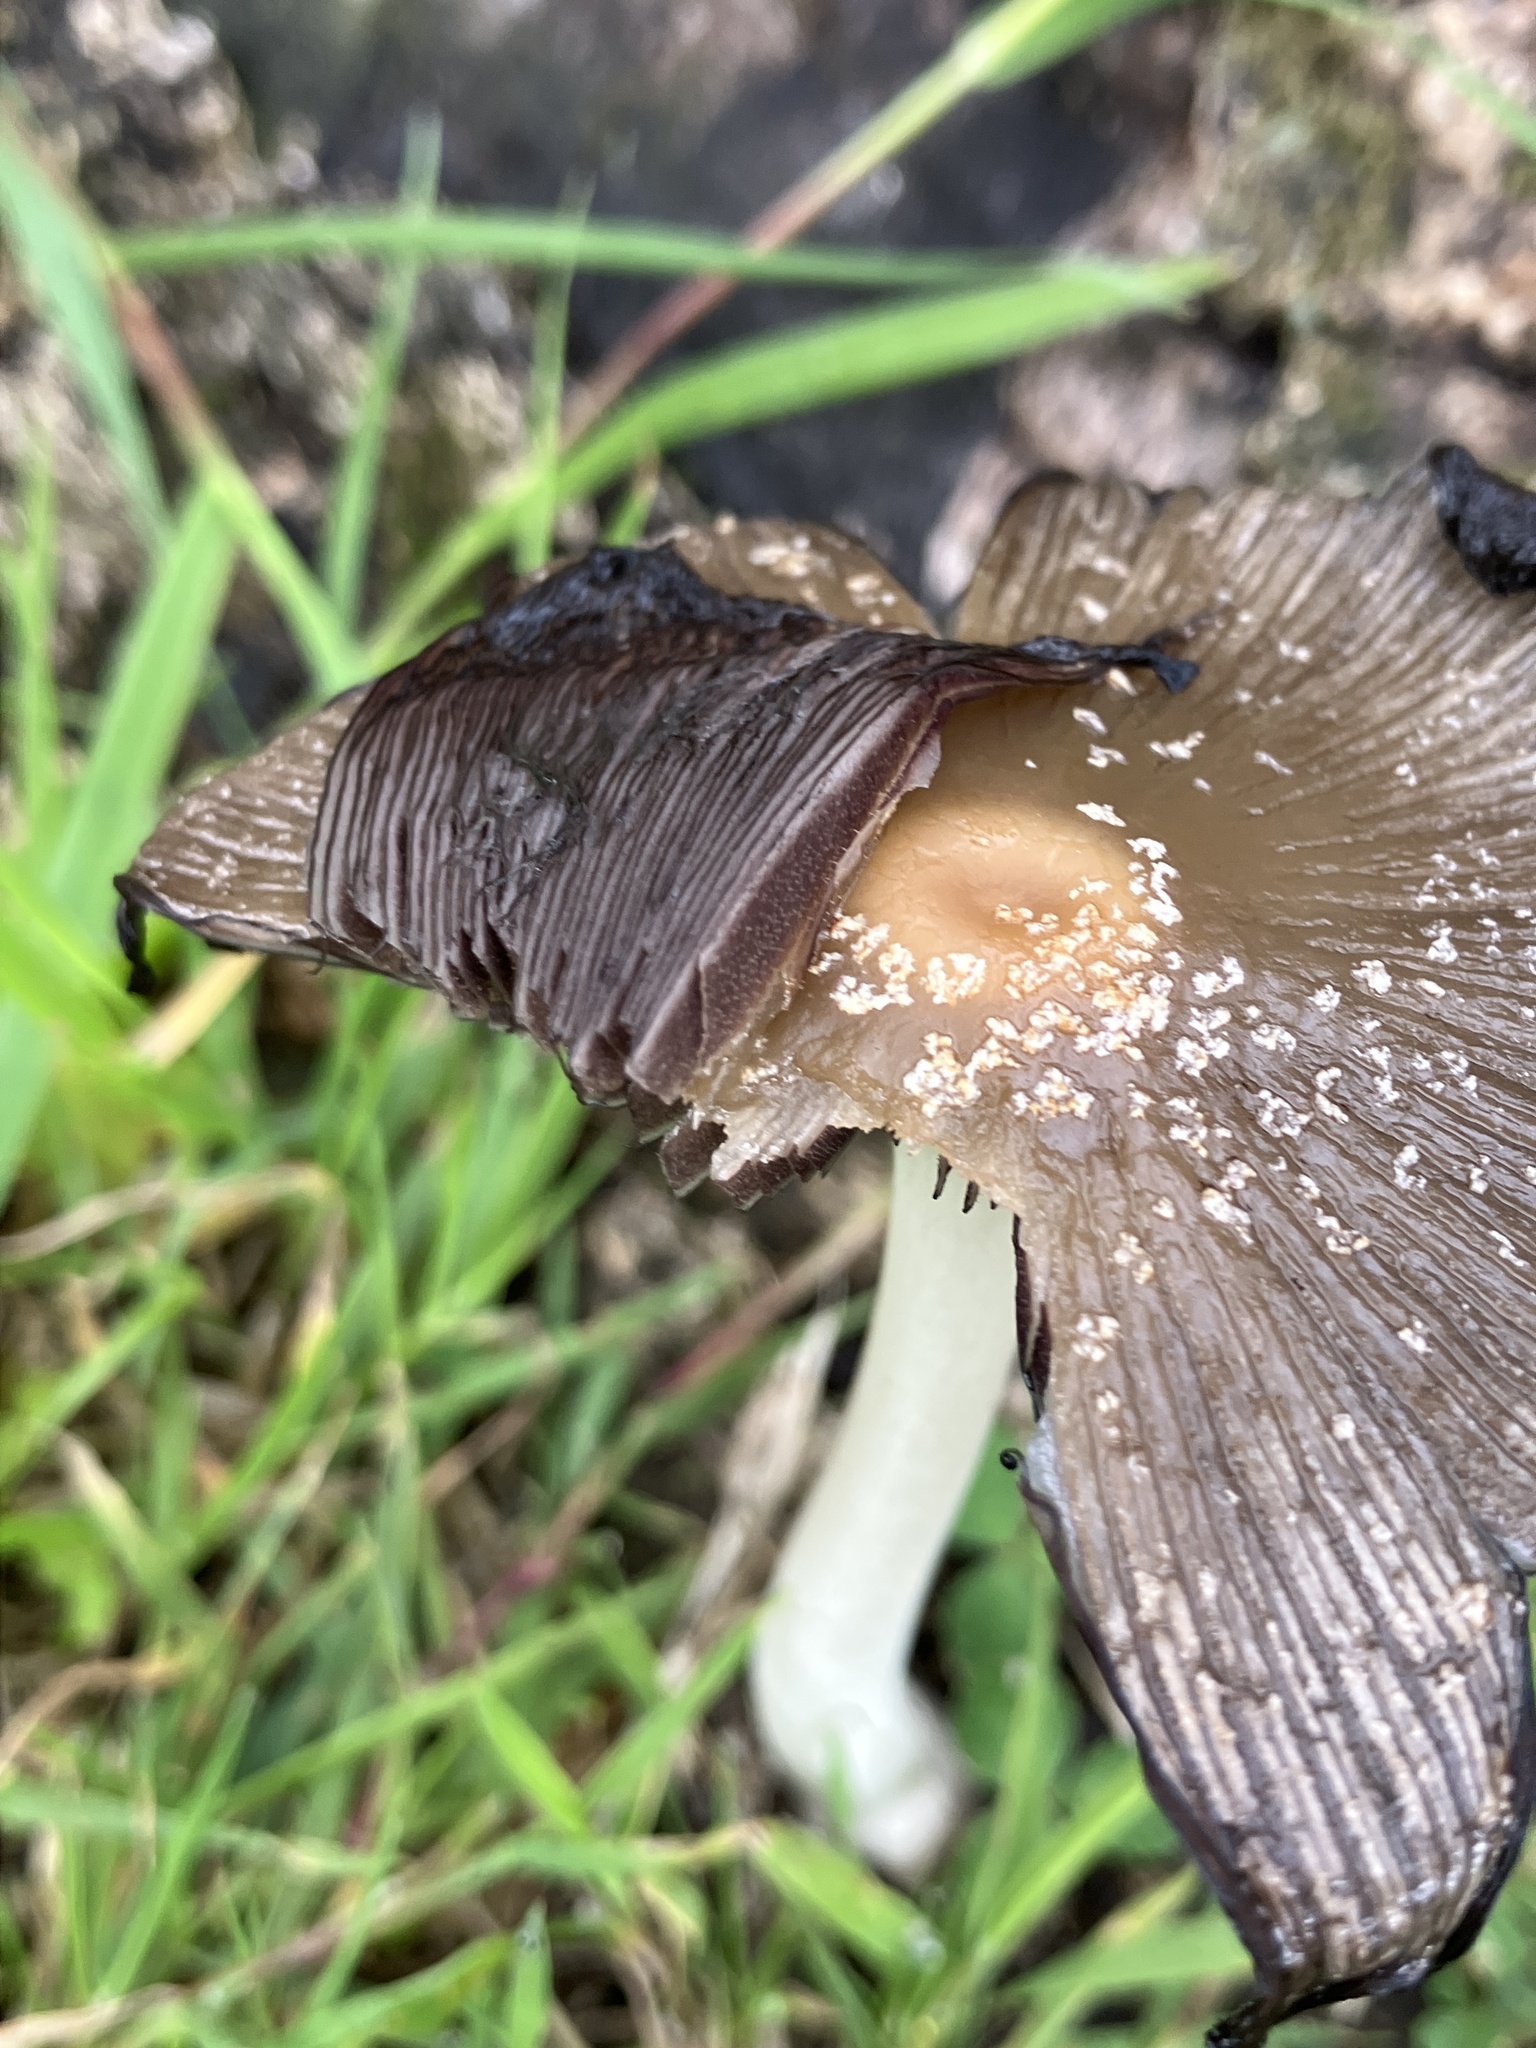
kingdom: Fungi
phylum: Basidiomycota
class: Agaricomycetes
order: Agaricales
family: Psathyrellaceae
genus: Coprinellus
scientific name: Coprinellus
